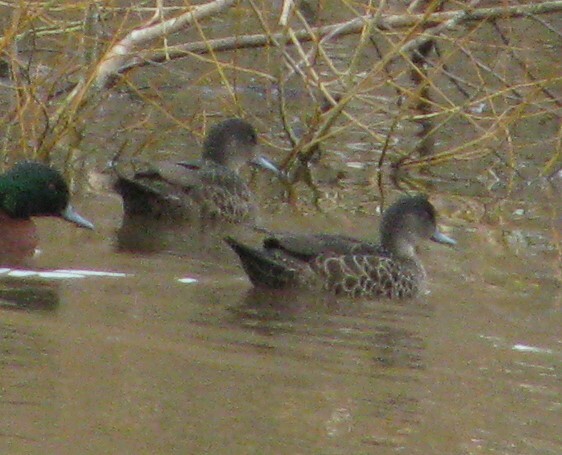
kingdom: Animalia
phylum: Chordata
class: Aves
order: Anseriformes
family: Anatidae
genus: Anas
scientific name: Anas castanea
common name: Chestnut teal
